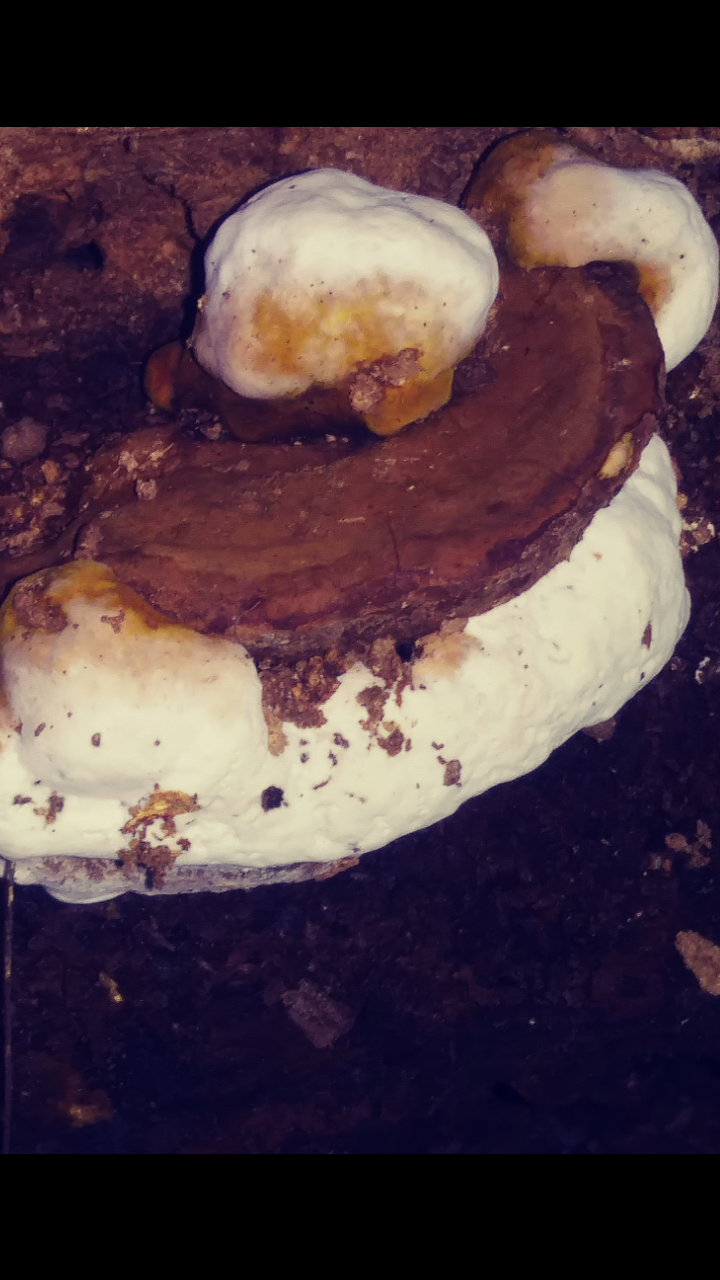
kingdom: Fungi
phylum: Basidiomycota
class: Agaricomycetes
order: Polyporales
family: Polyporaceae
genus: Ganoderma
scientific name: Ganoderma applanatum
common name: Artist's bracket
